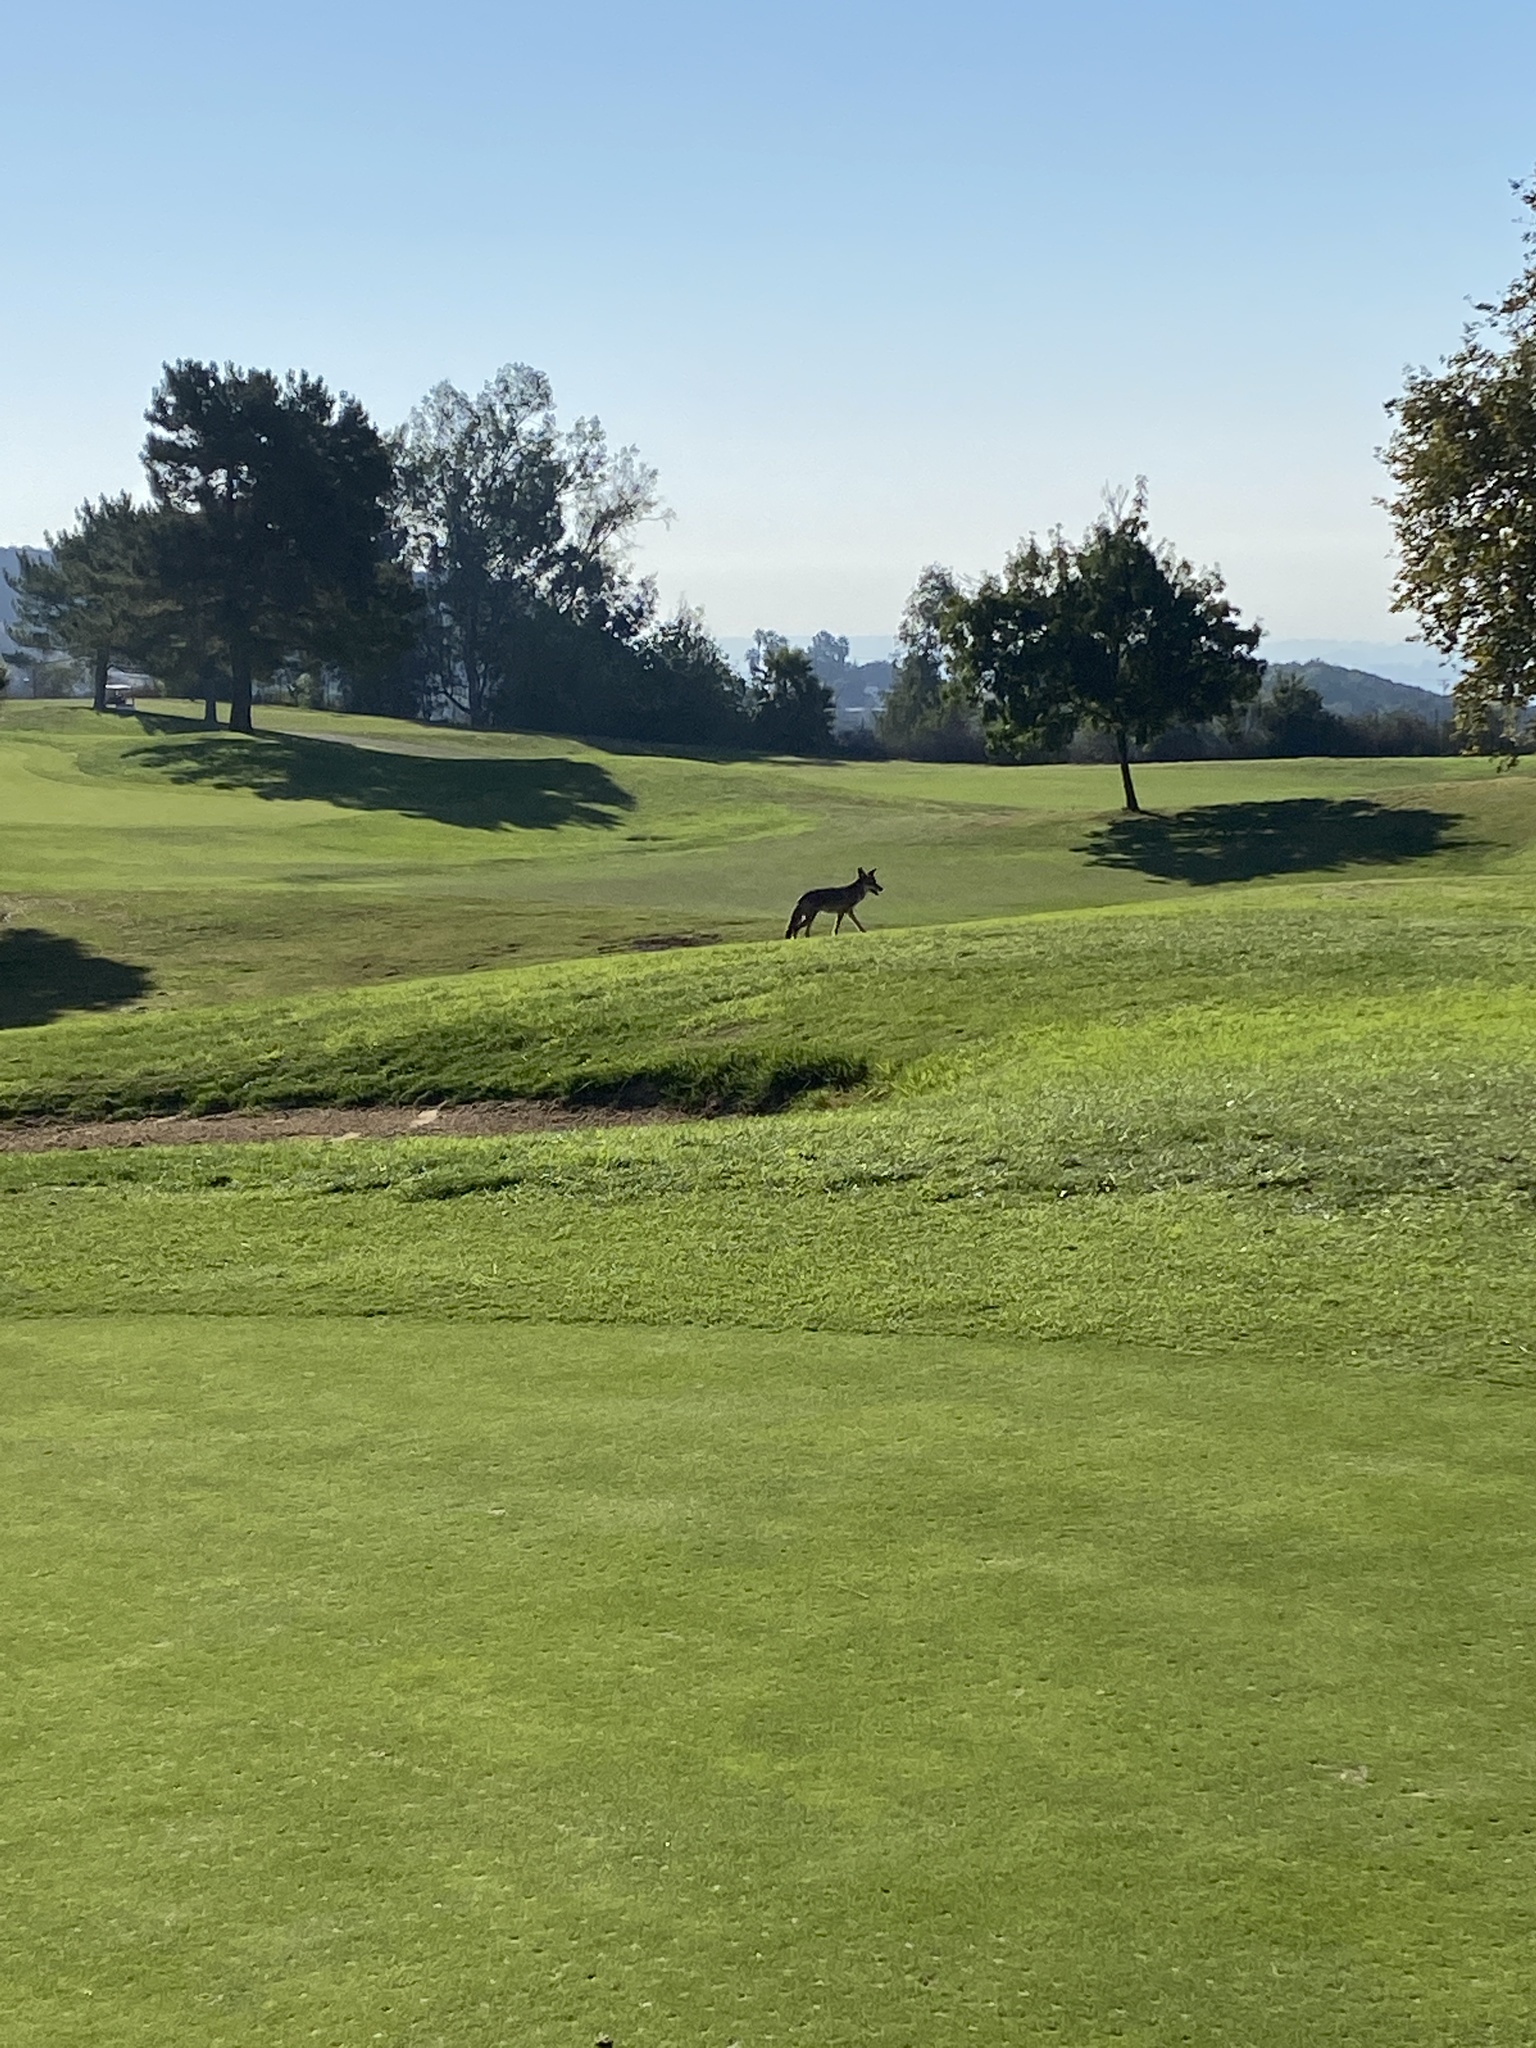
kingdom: Animalia
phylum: Chordata
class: Mammalia
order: Carnivora
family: Canidae
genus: Canis
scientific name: Canis latrans
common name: Coyote
